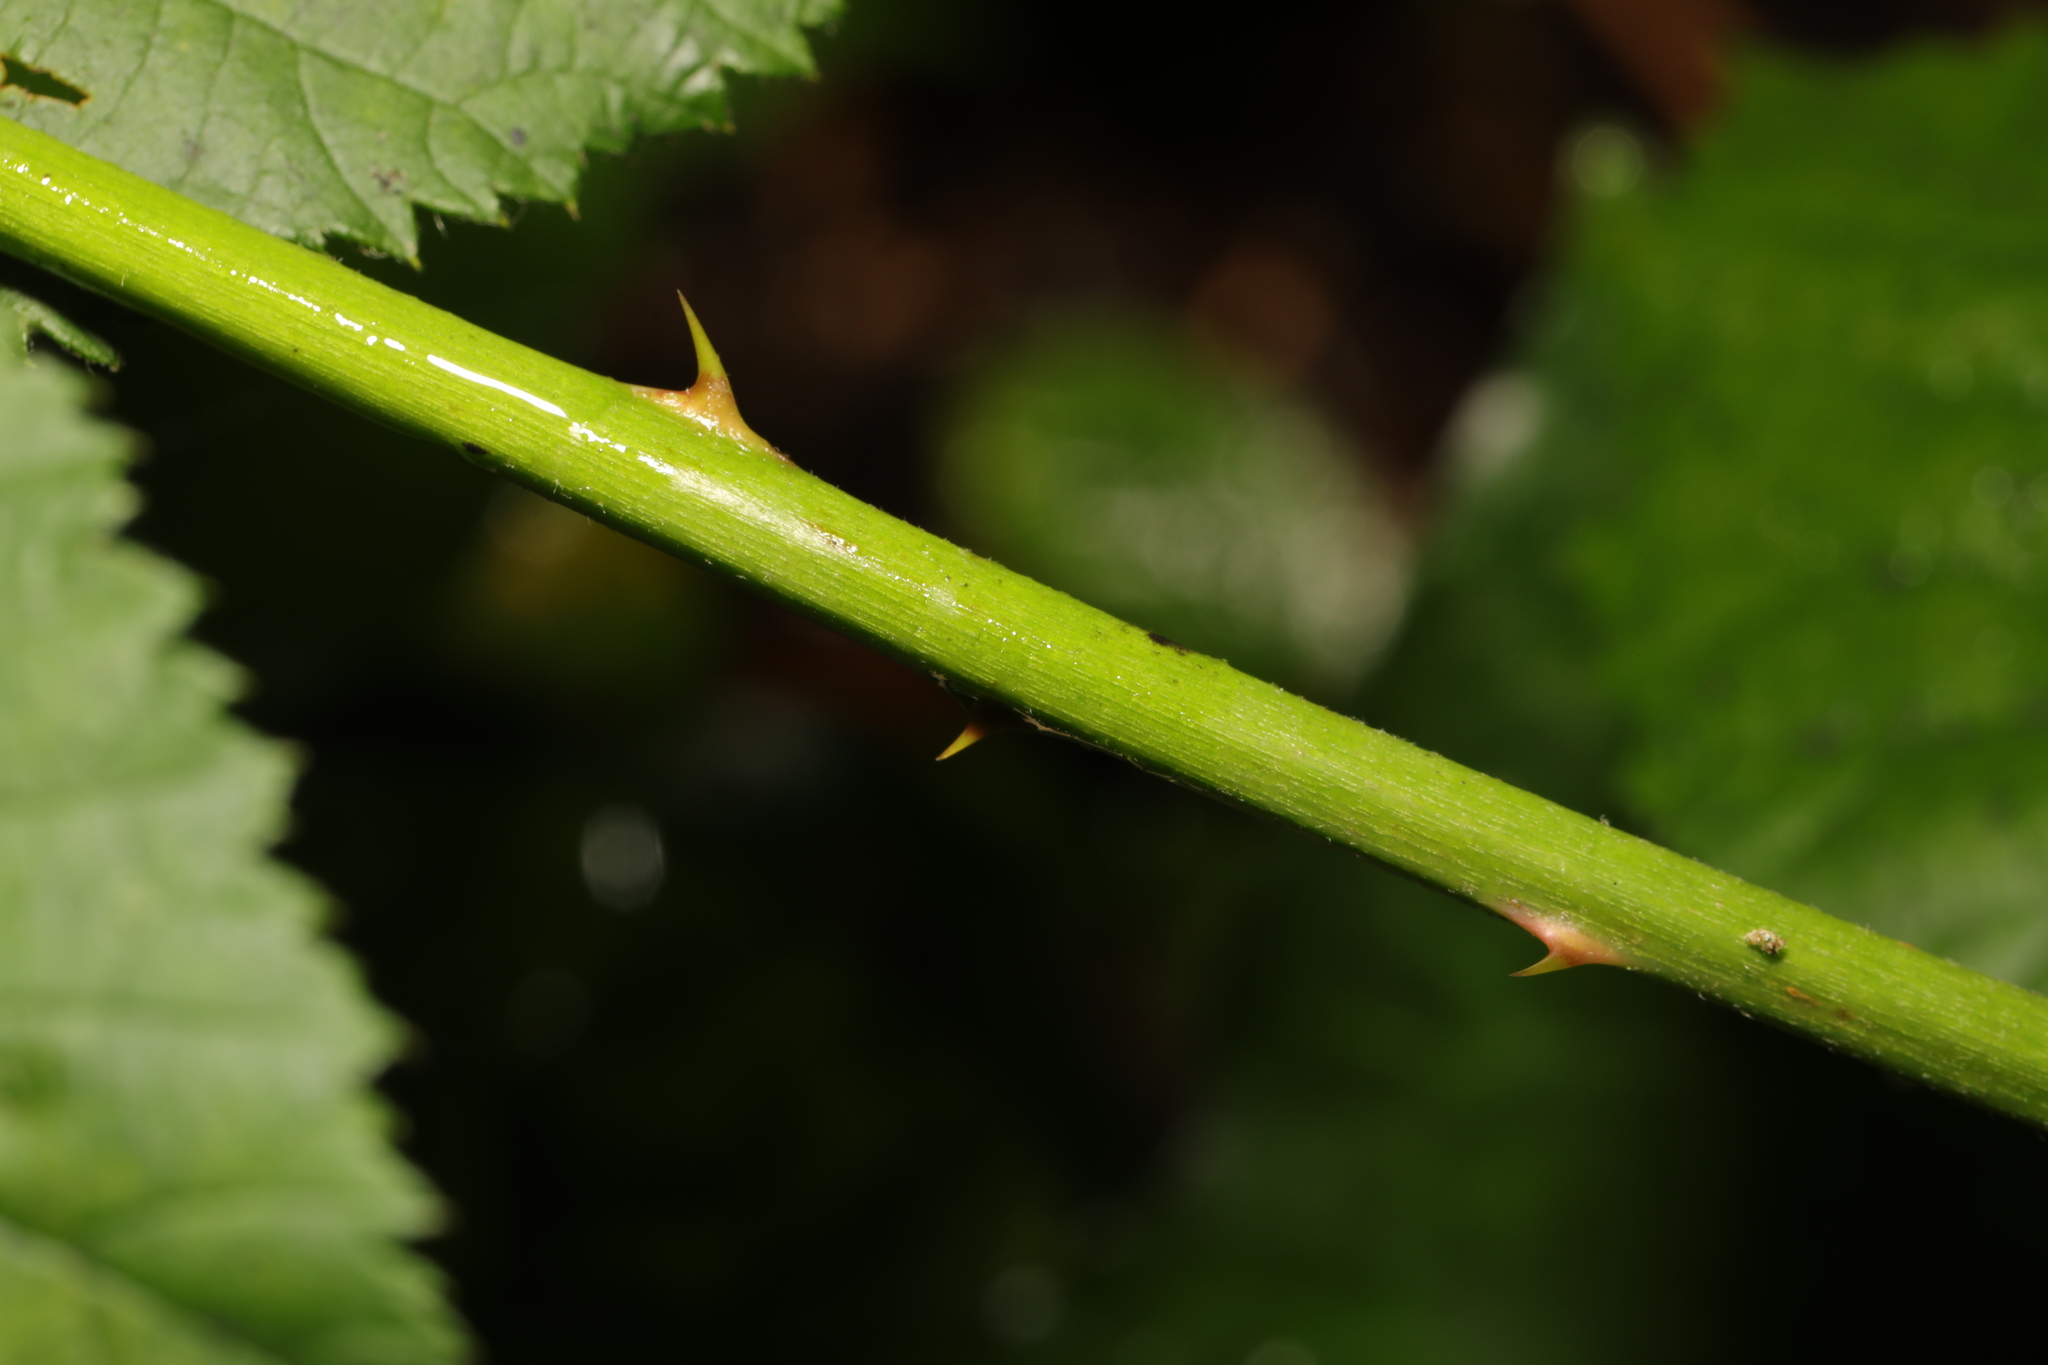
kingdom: Plantae
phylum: Tracheophyta
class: Magnoliopsida
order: Rosales
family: Rosaceae
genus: Rubus
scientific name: Rubus armeniacus
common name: Himalayan blackberry
